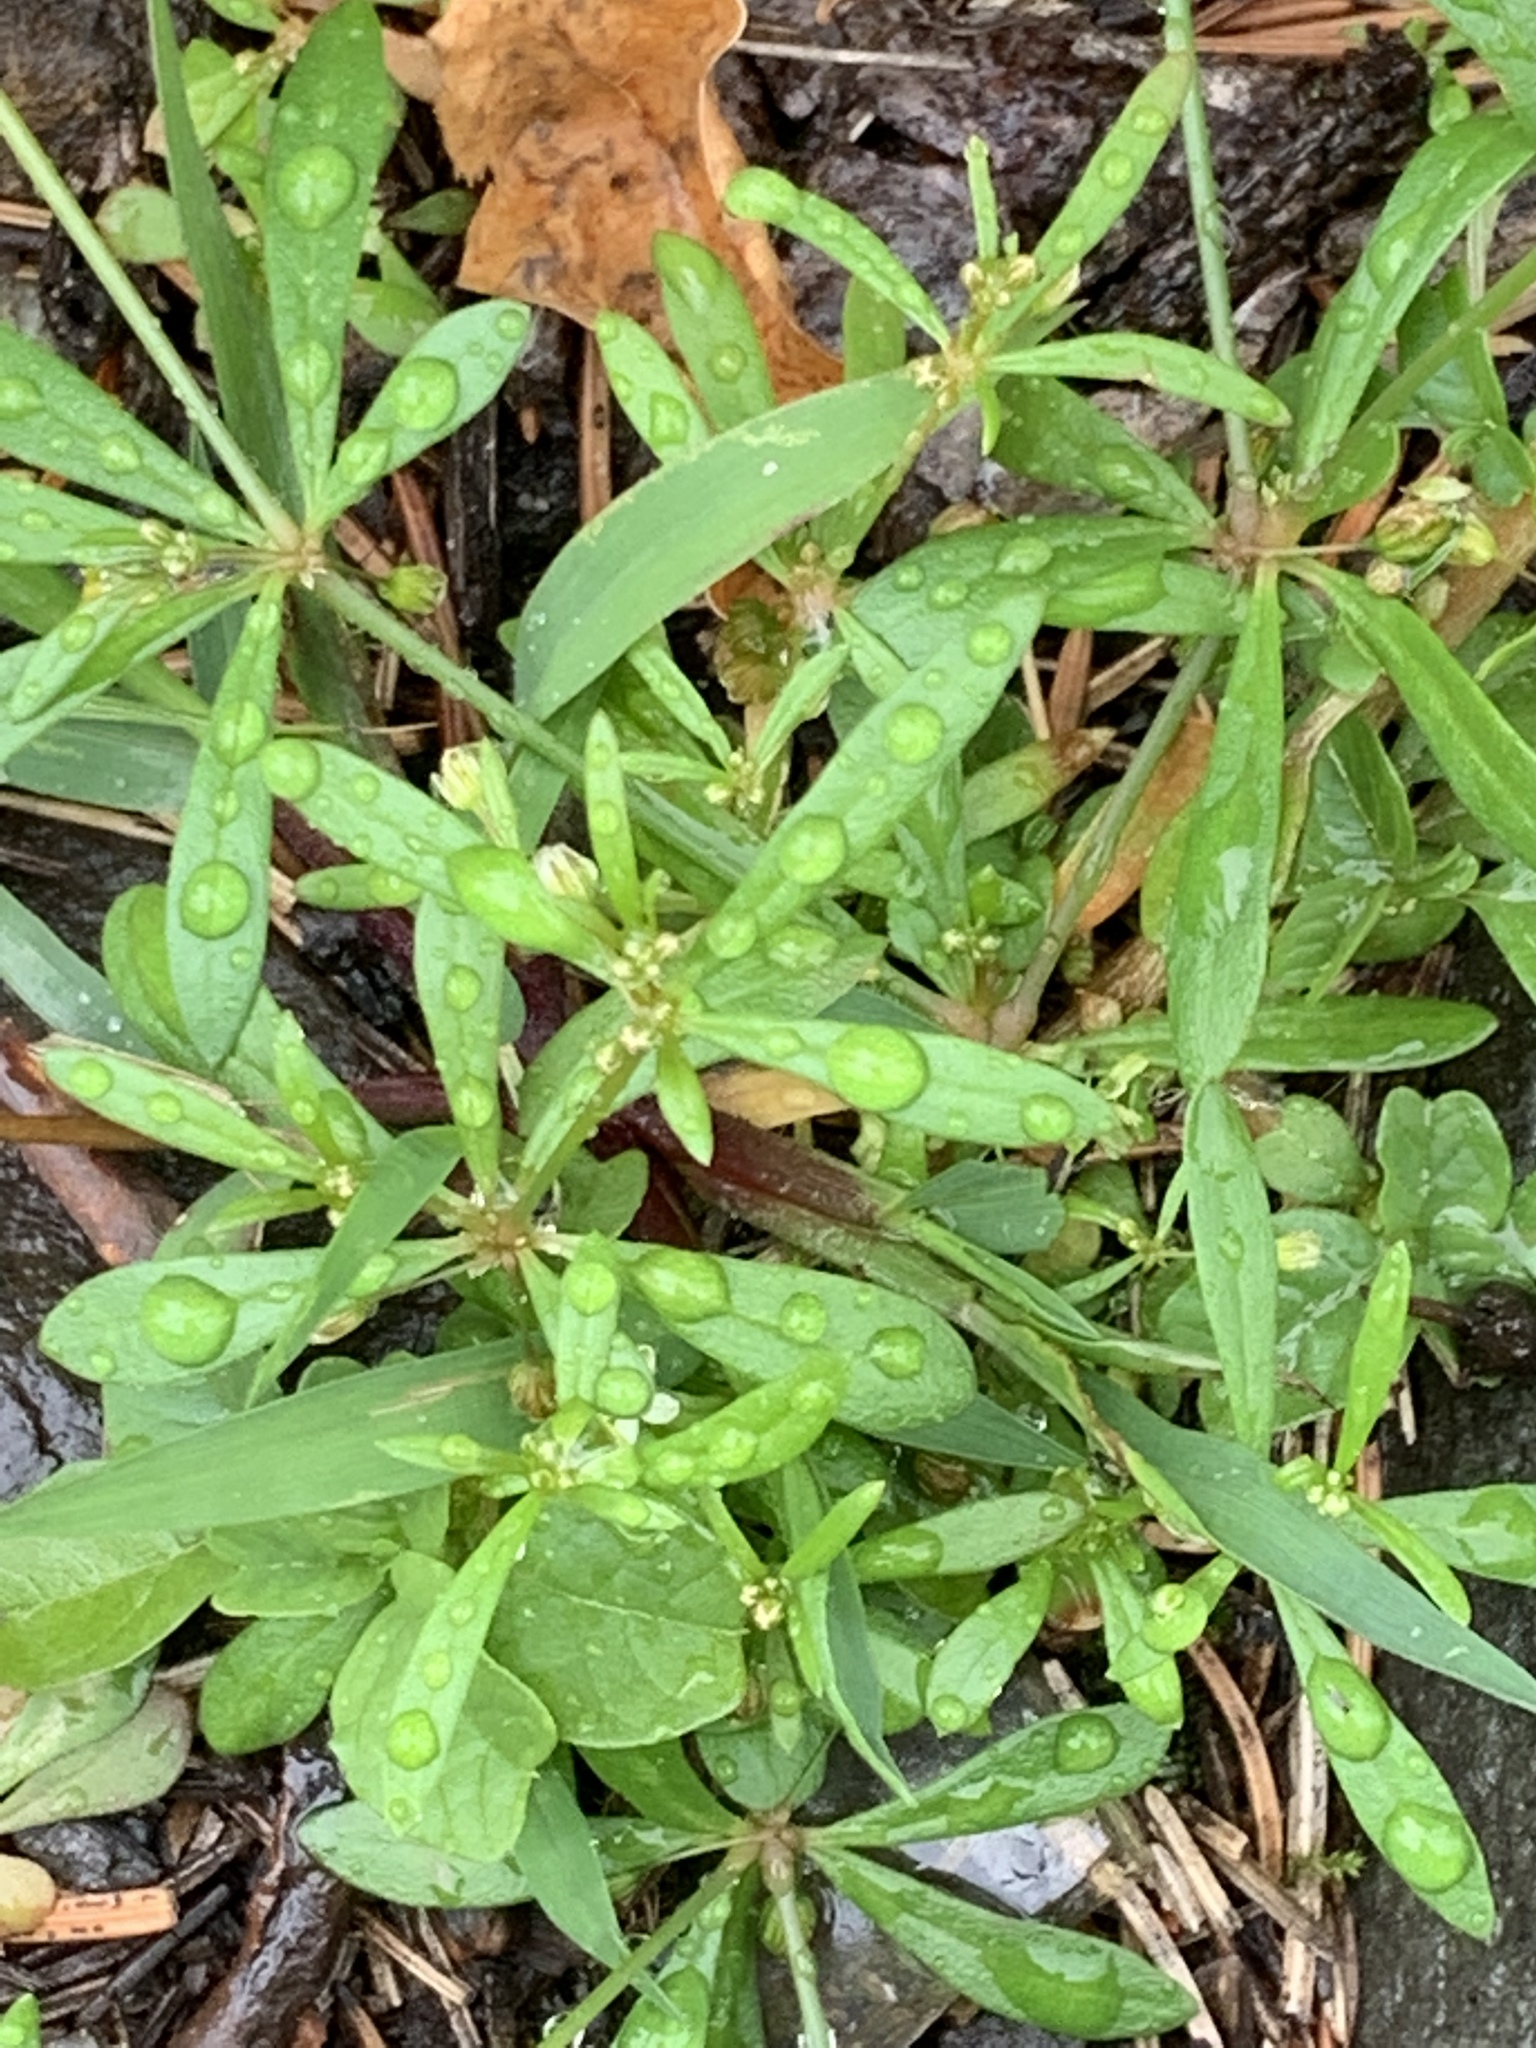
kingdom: Plantae
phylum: Tracheophyta
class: Magnoliopsida
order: Caryophyllales
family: Molluginaceae
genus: Mollugo
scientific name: Mollugo verticillata
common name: Green carpetweed
